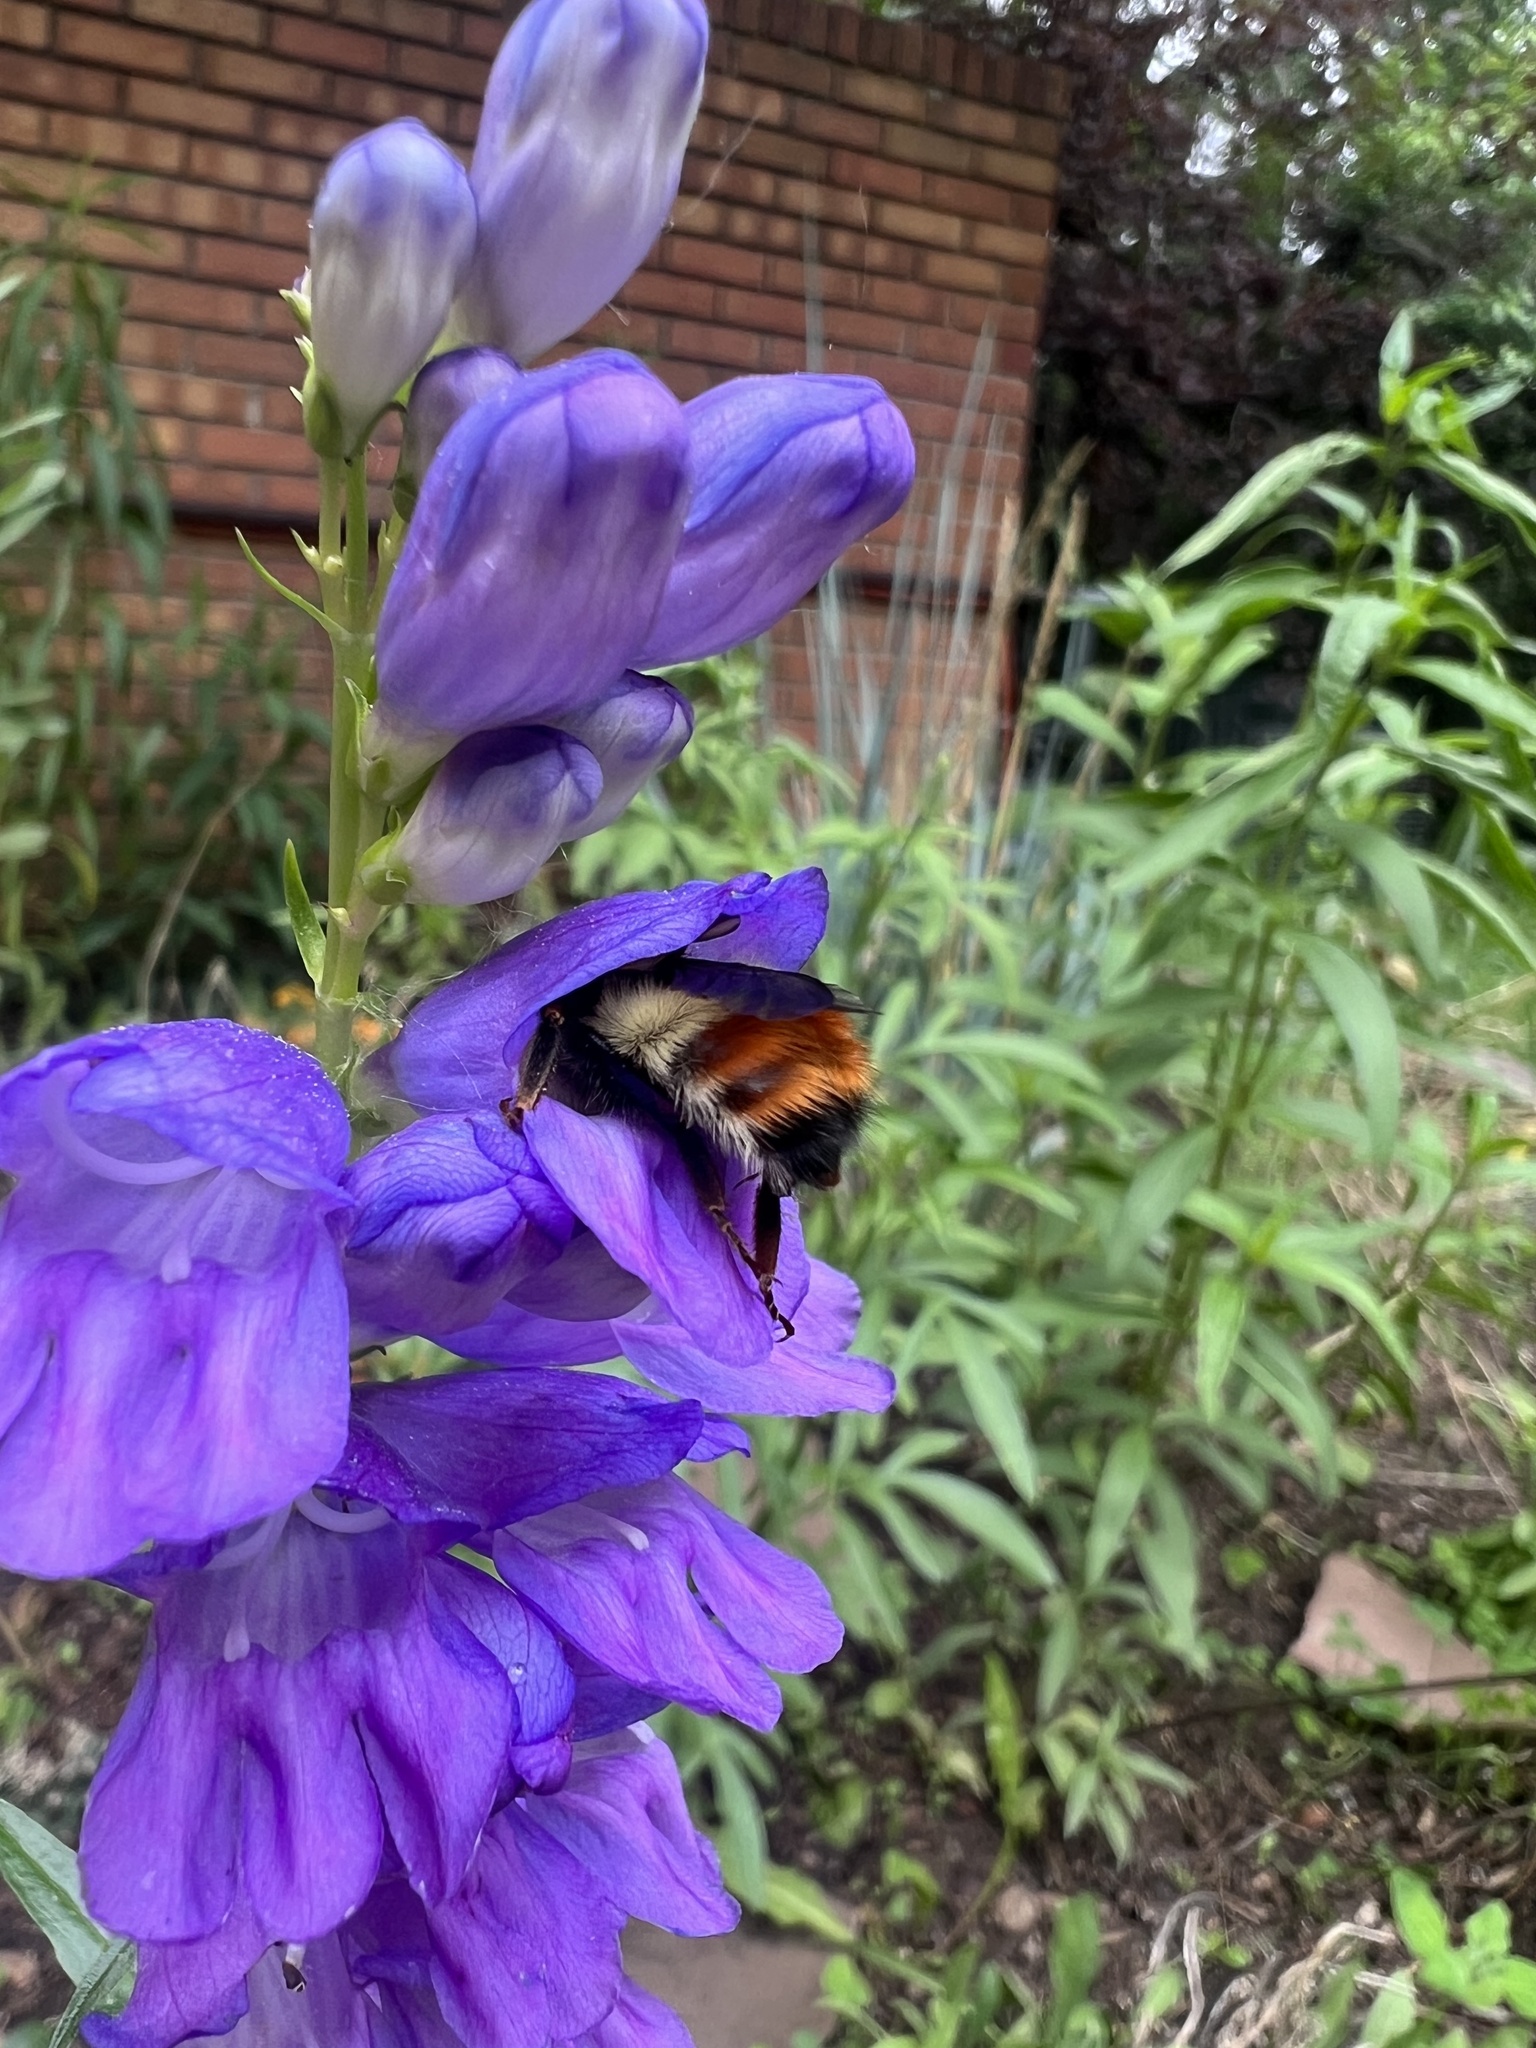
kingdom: Animalia
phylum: Arthropoda
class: Insecta
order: Hymenoptera
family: Apidae
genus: Bombus
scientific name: Bombus centralis
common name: Central bumble bee
